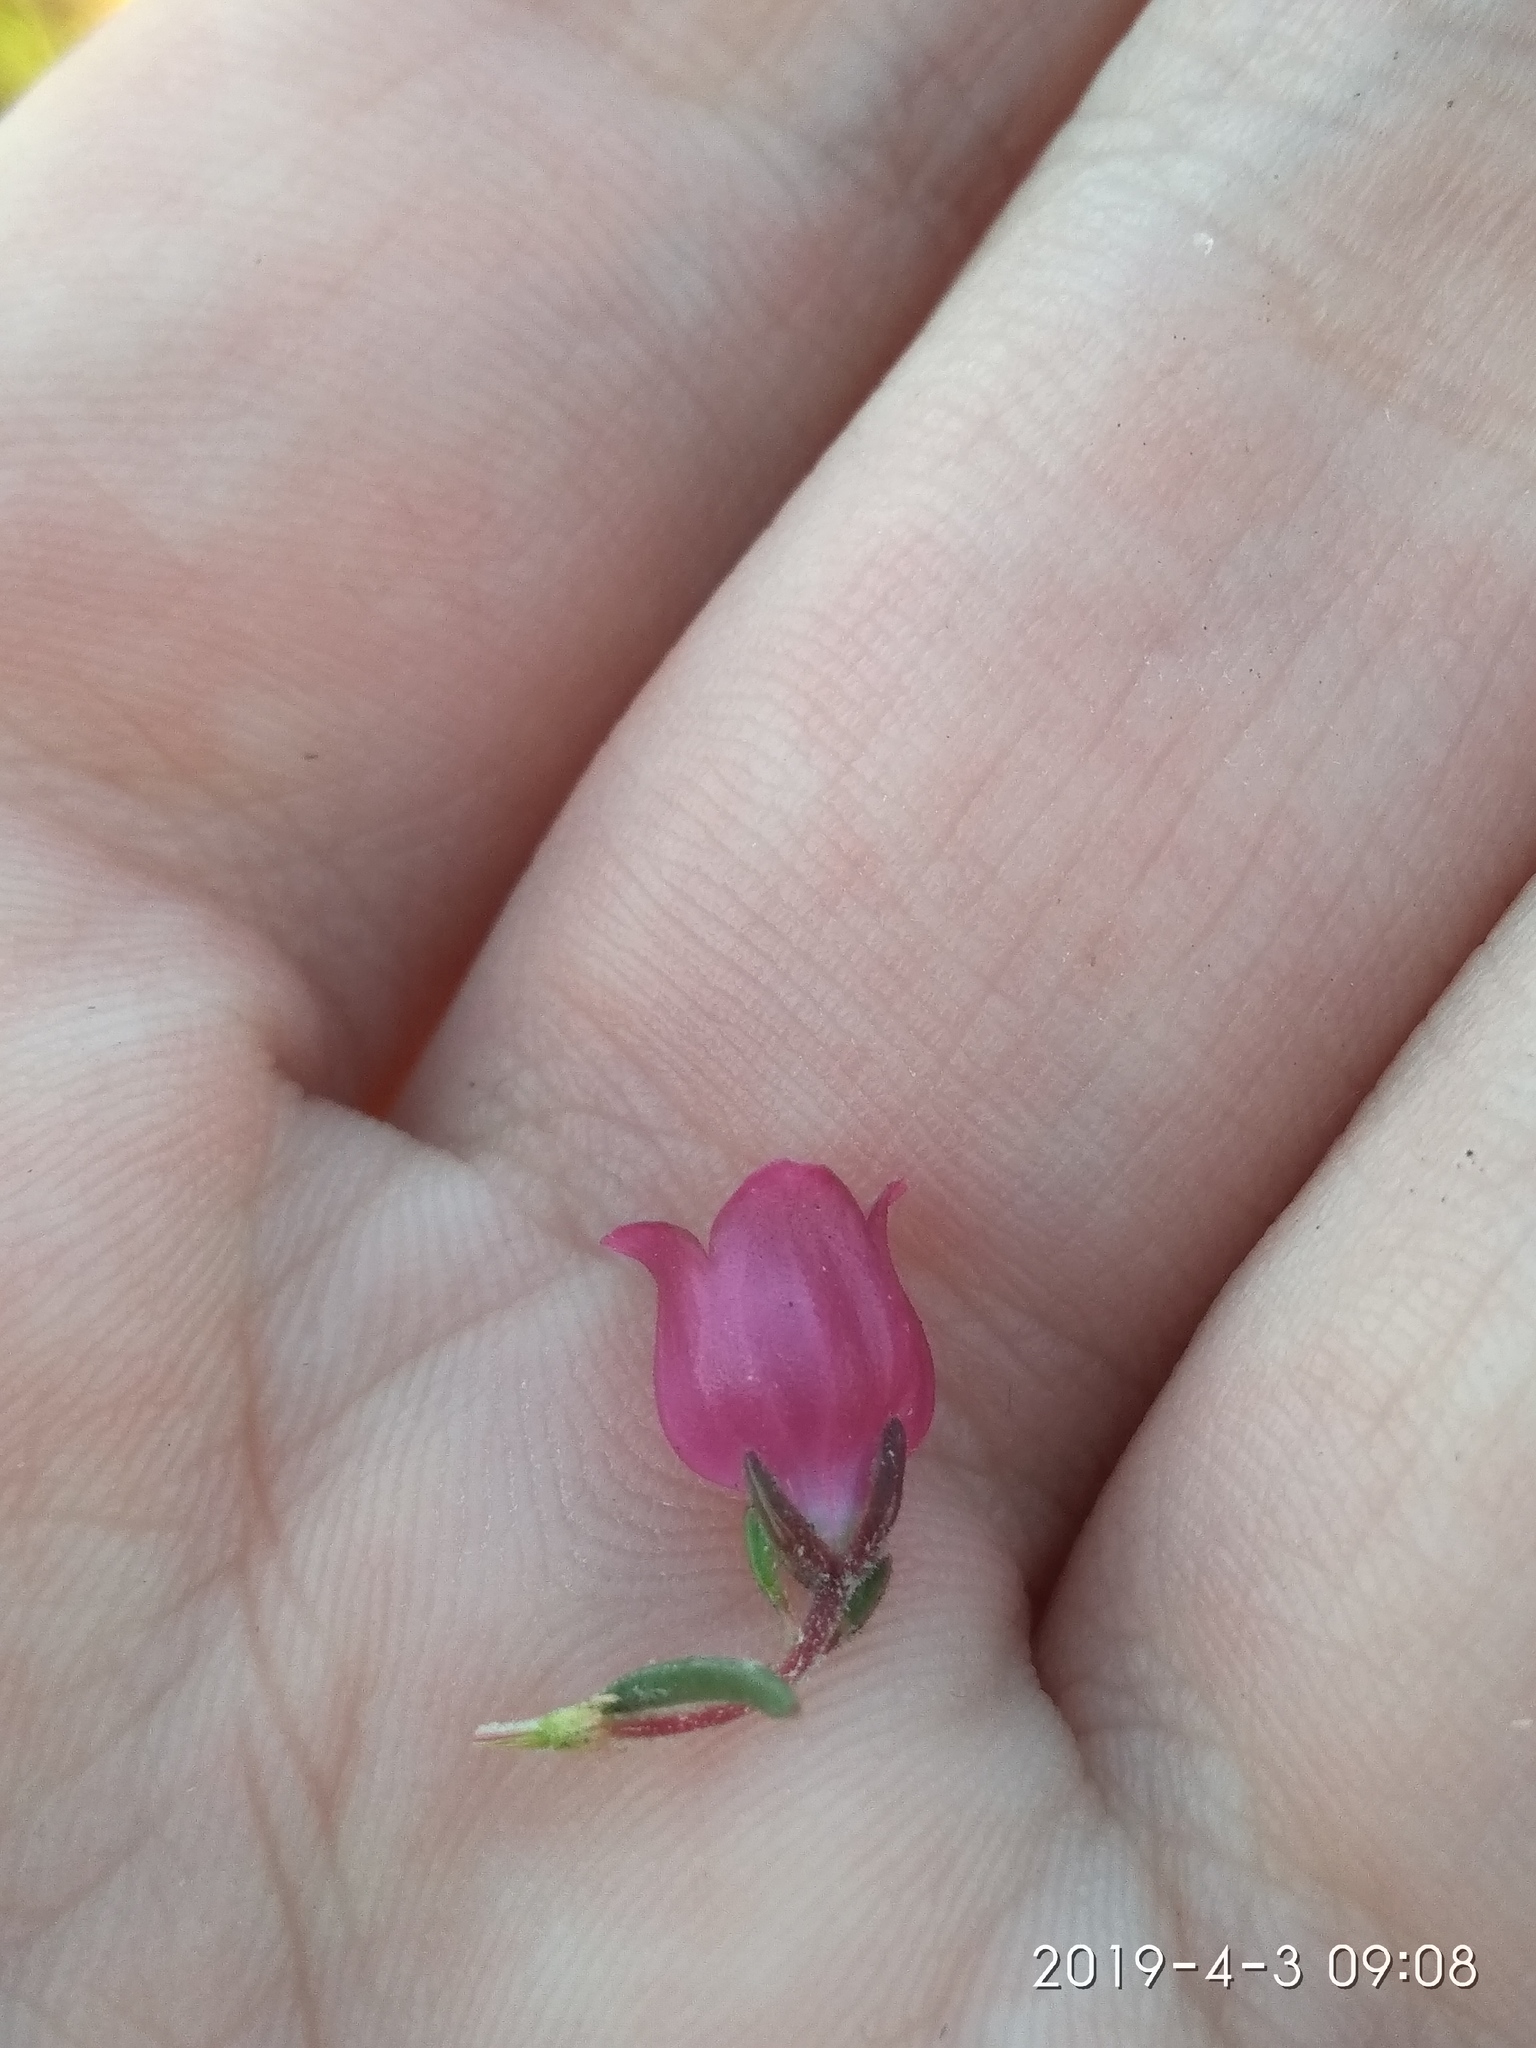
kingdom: Plantae
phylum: Tracheophyta
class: Magnoliopsida
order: Ericales
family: Ericaceae
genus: Erica
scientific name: Erica viscaria
